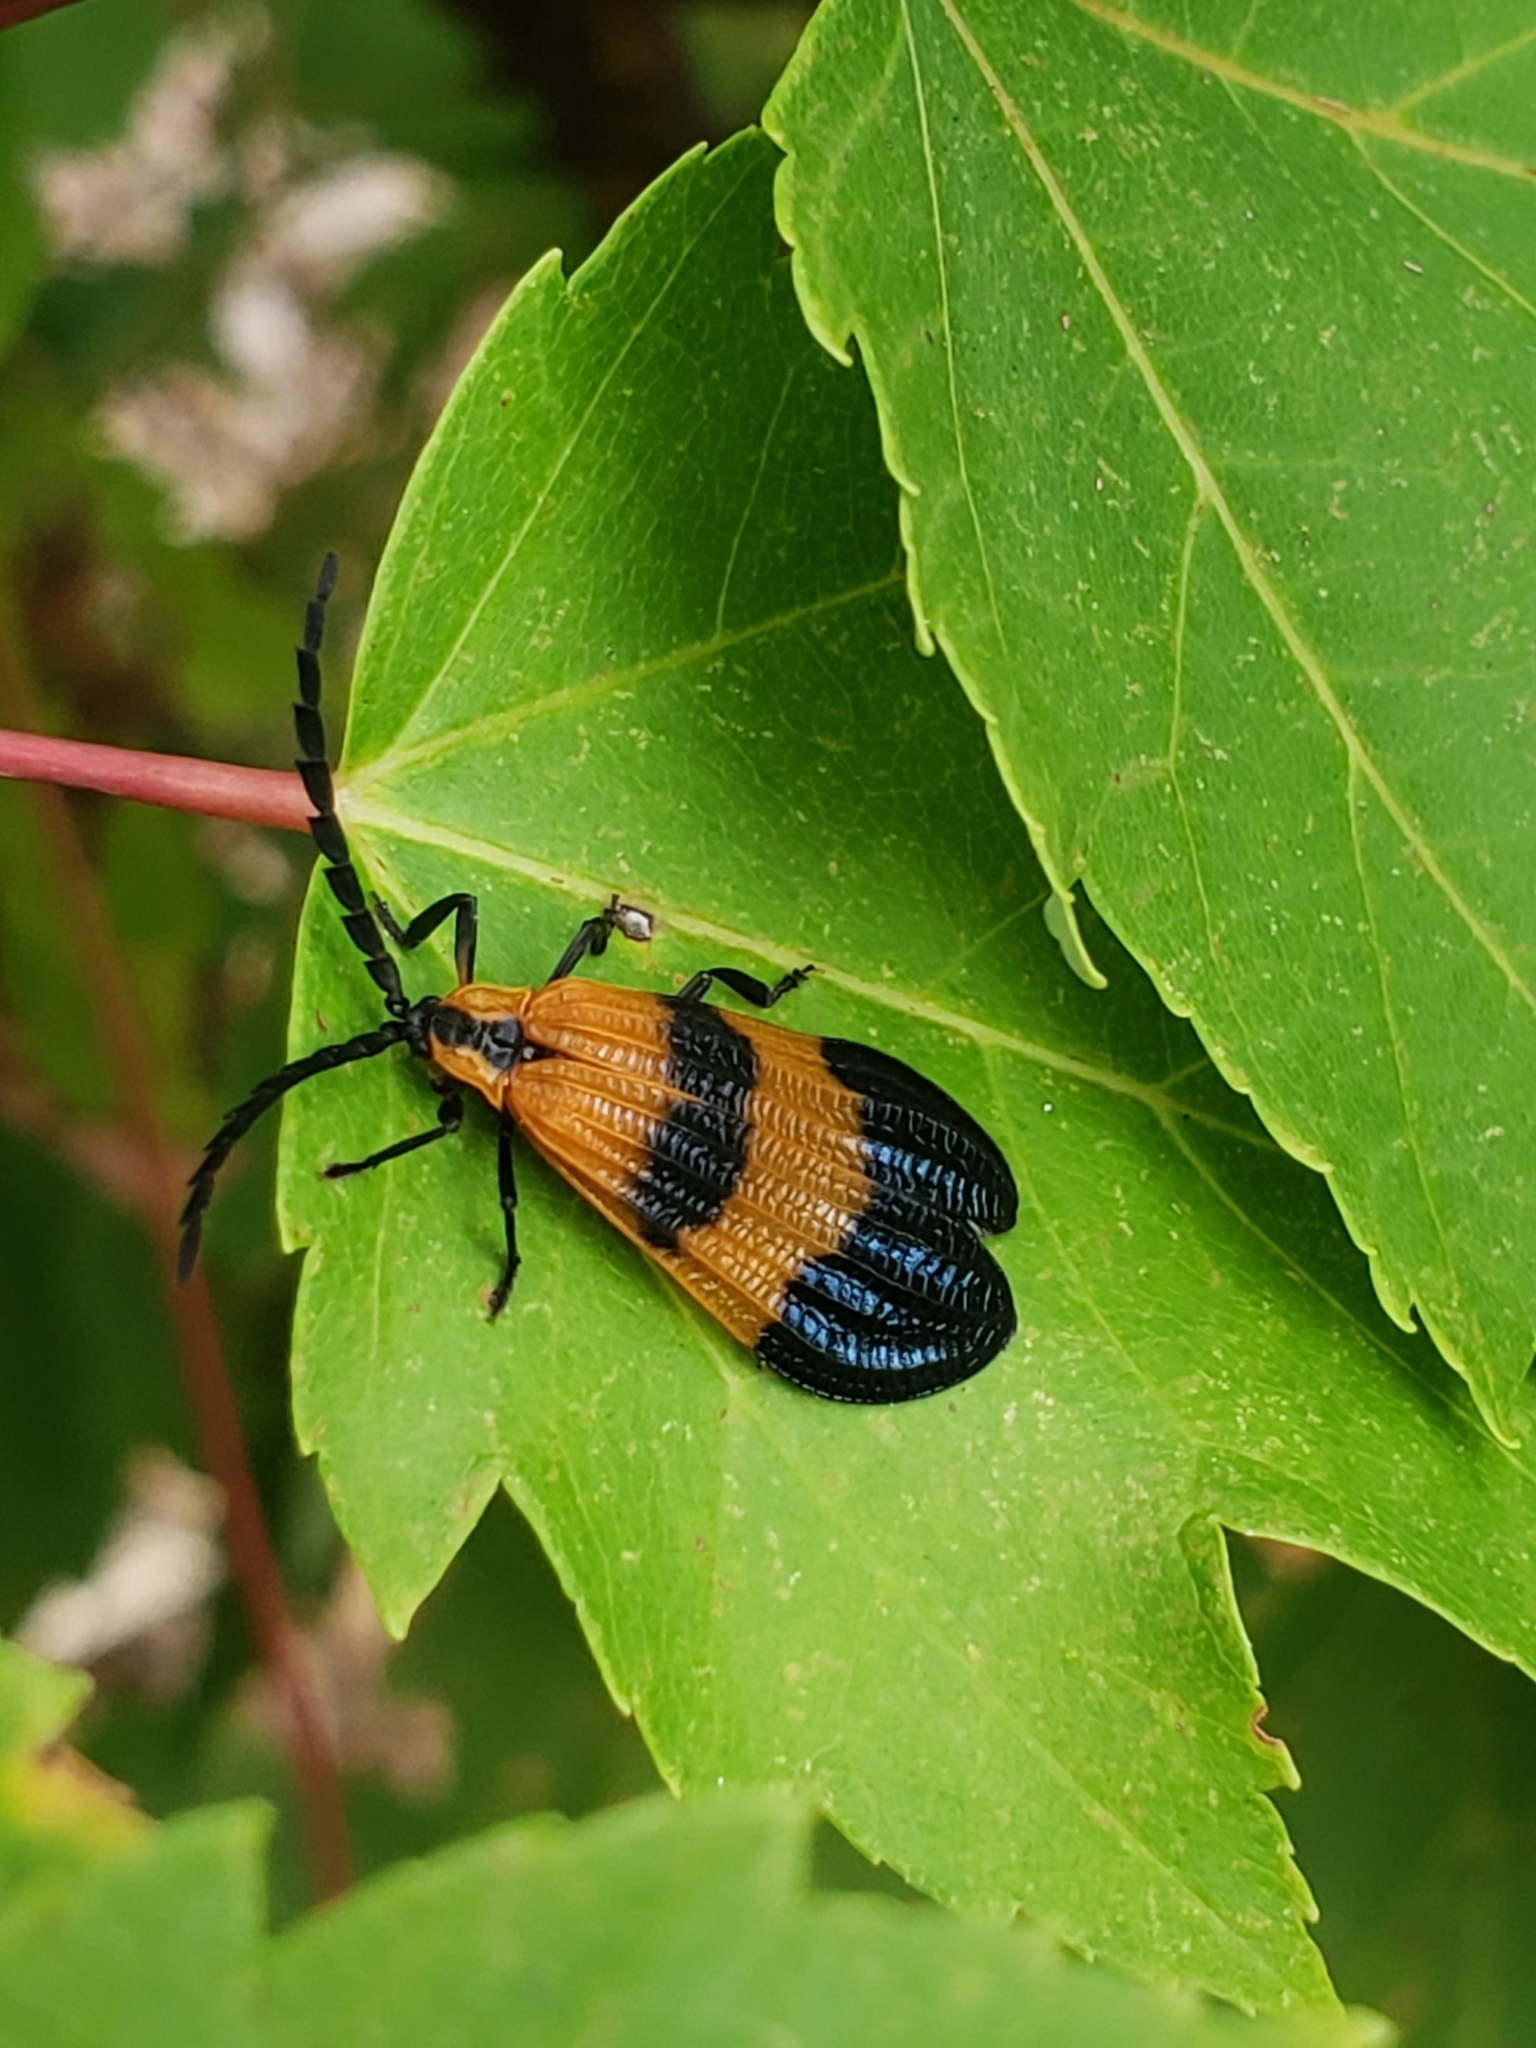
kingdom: Animalia
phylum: Arthropoda
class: Insecta
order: Coleoptera
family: Lycidae
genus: Calopteron
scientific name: Calopteron terminale
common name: End band net-winged beetle
